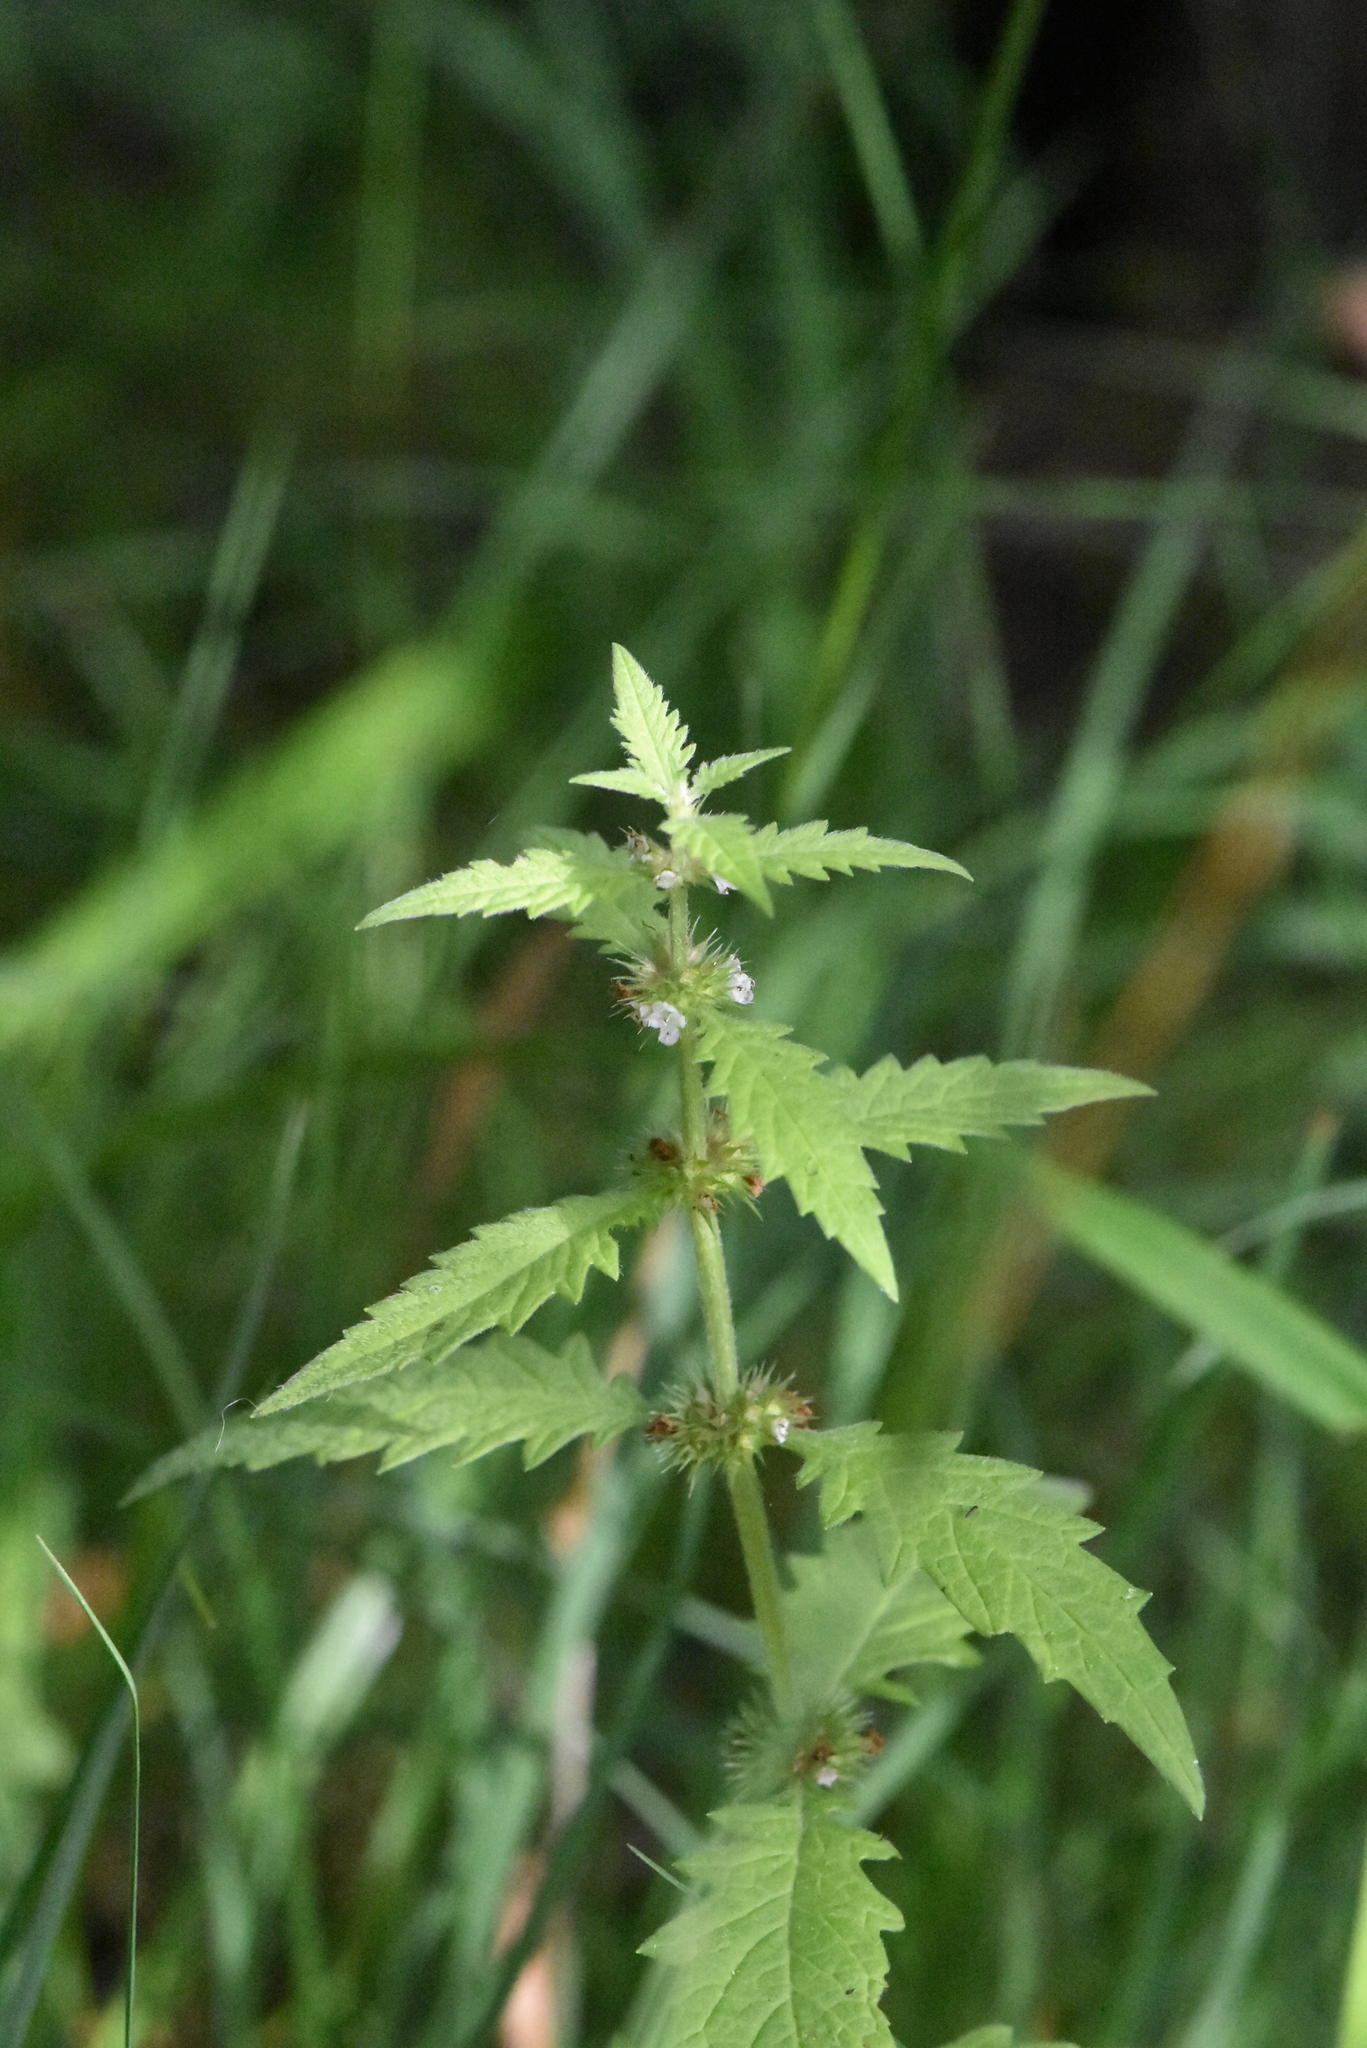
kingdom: Plantae
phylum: Tracheophyta
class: Magnoliopsida
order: Lamiales
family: Lamiaceae
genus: Lycopus
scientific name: Lycopus europaeus
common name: European bugleweed
